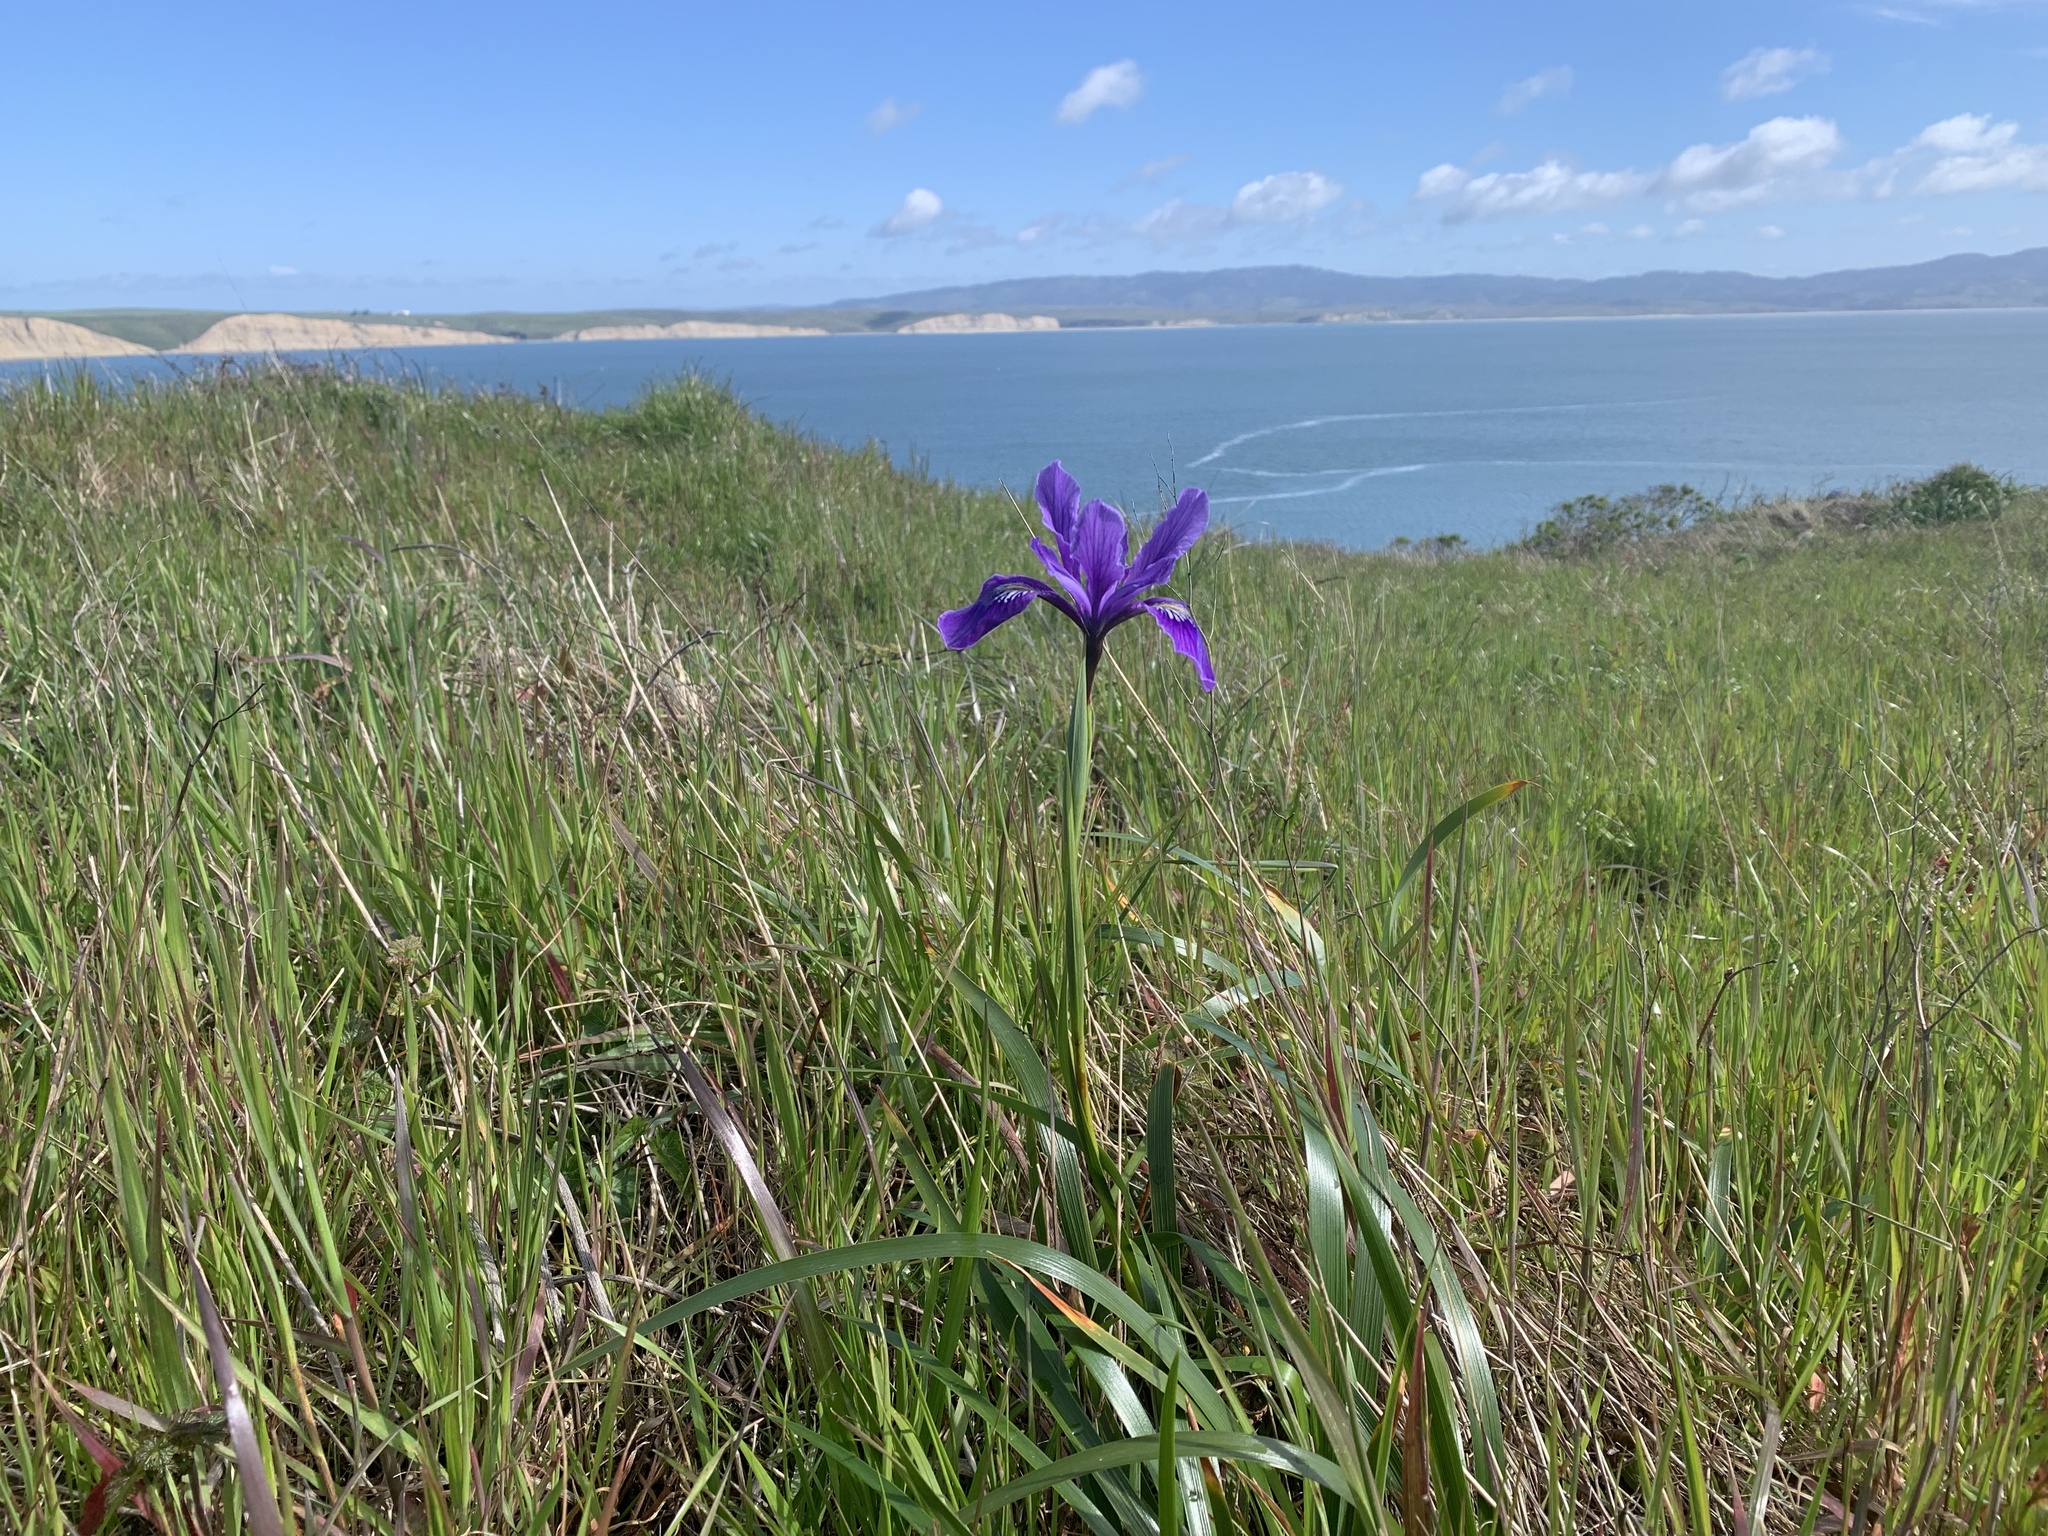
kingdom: Plantae
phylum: Tracheophyta
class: Liliopsida
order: Asparagales
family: Iridaceae
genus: Iris
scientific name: Iris douglasiana
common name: Marin iris
